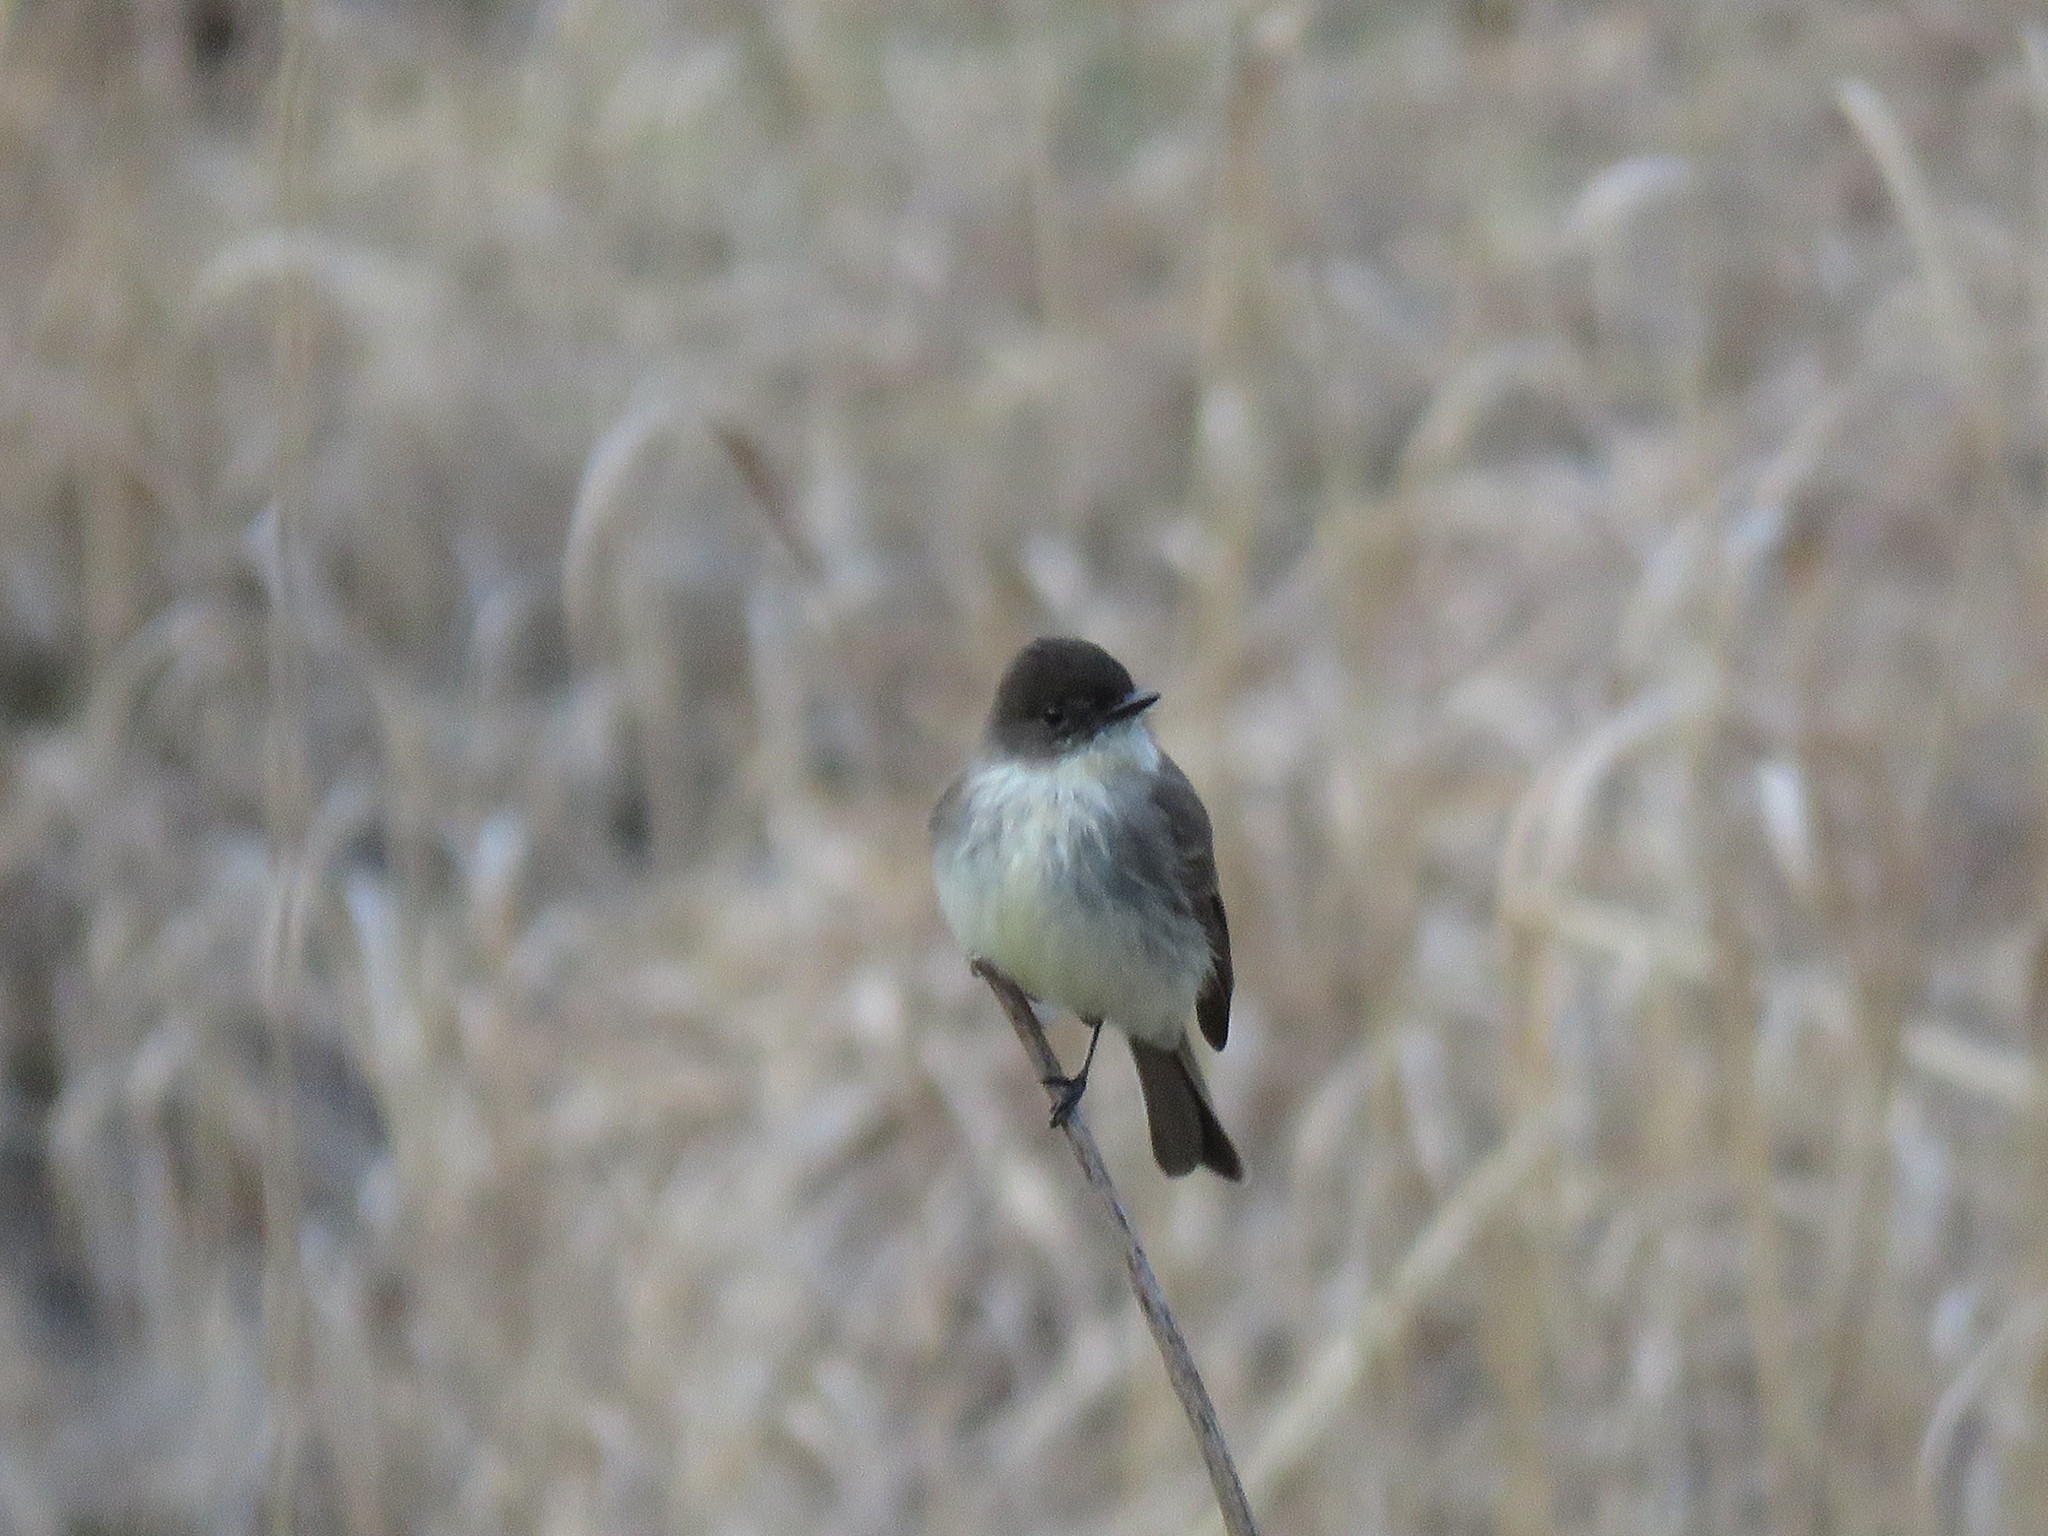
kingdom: Animalia
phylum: Chordata
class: Aves
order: Passeriformes
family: Tyrannidae
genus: Sayornis
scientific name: Sayornis phoebe
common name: Eastern phoebe
